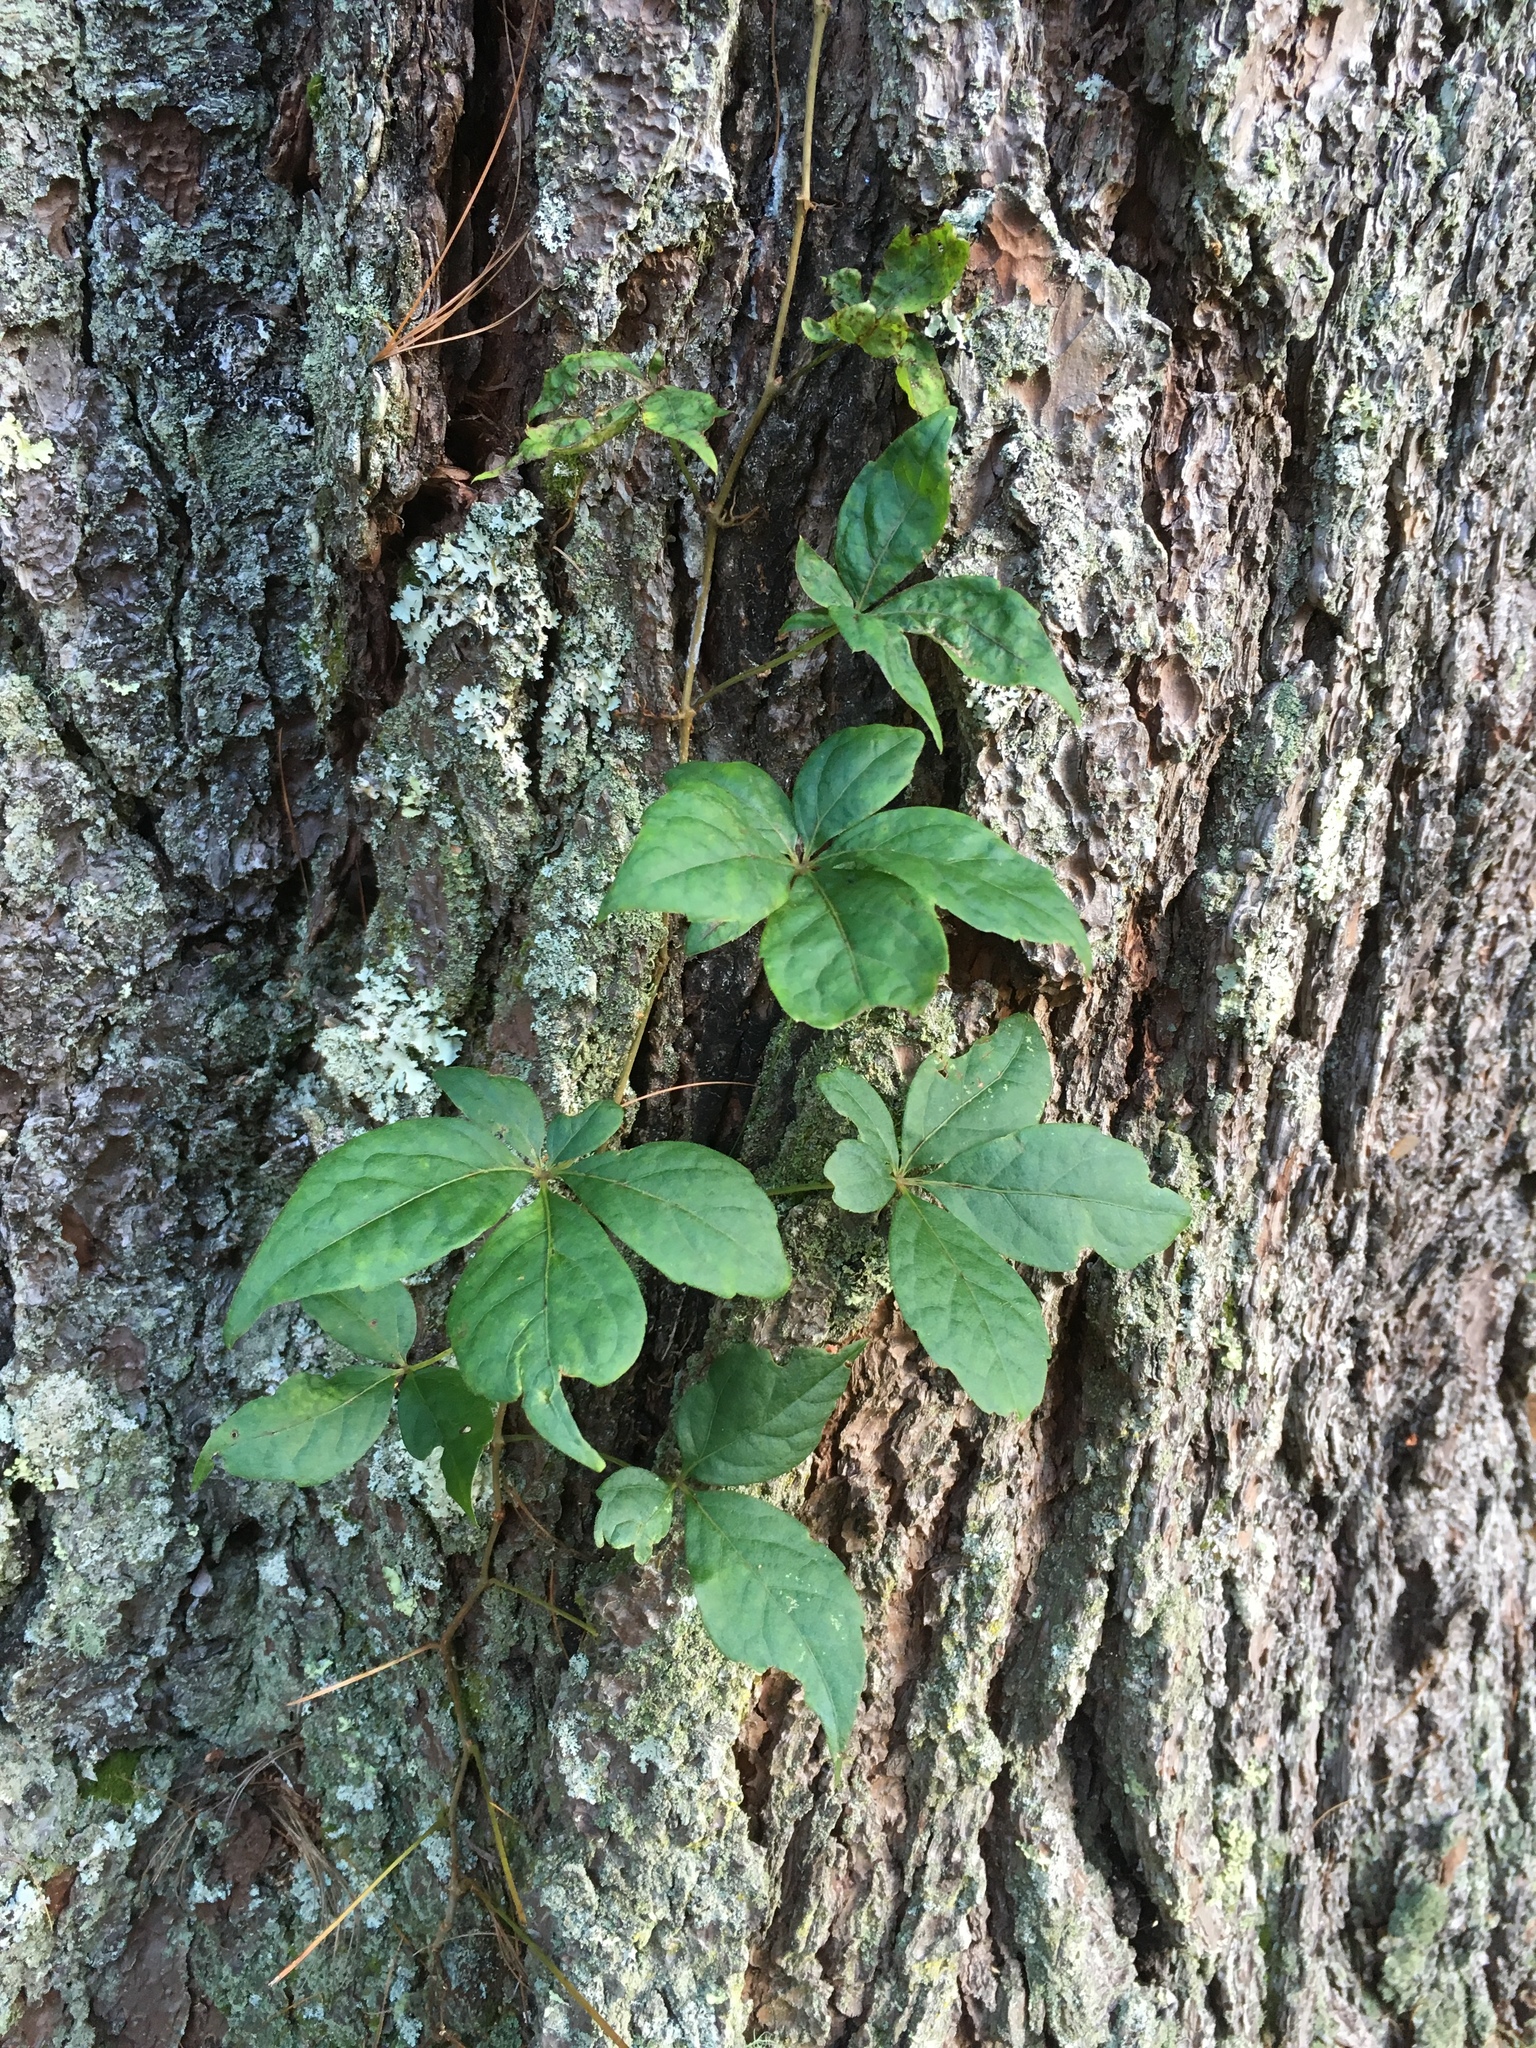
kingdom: Plantae
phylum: Tracheophyta
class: Magnoliopsida
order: Vitales
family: Vitaceae
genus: Parthenocissus
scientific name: Parthenocissus quinquefolia
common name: Virginia-creeper
